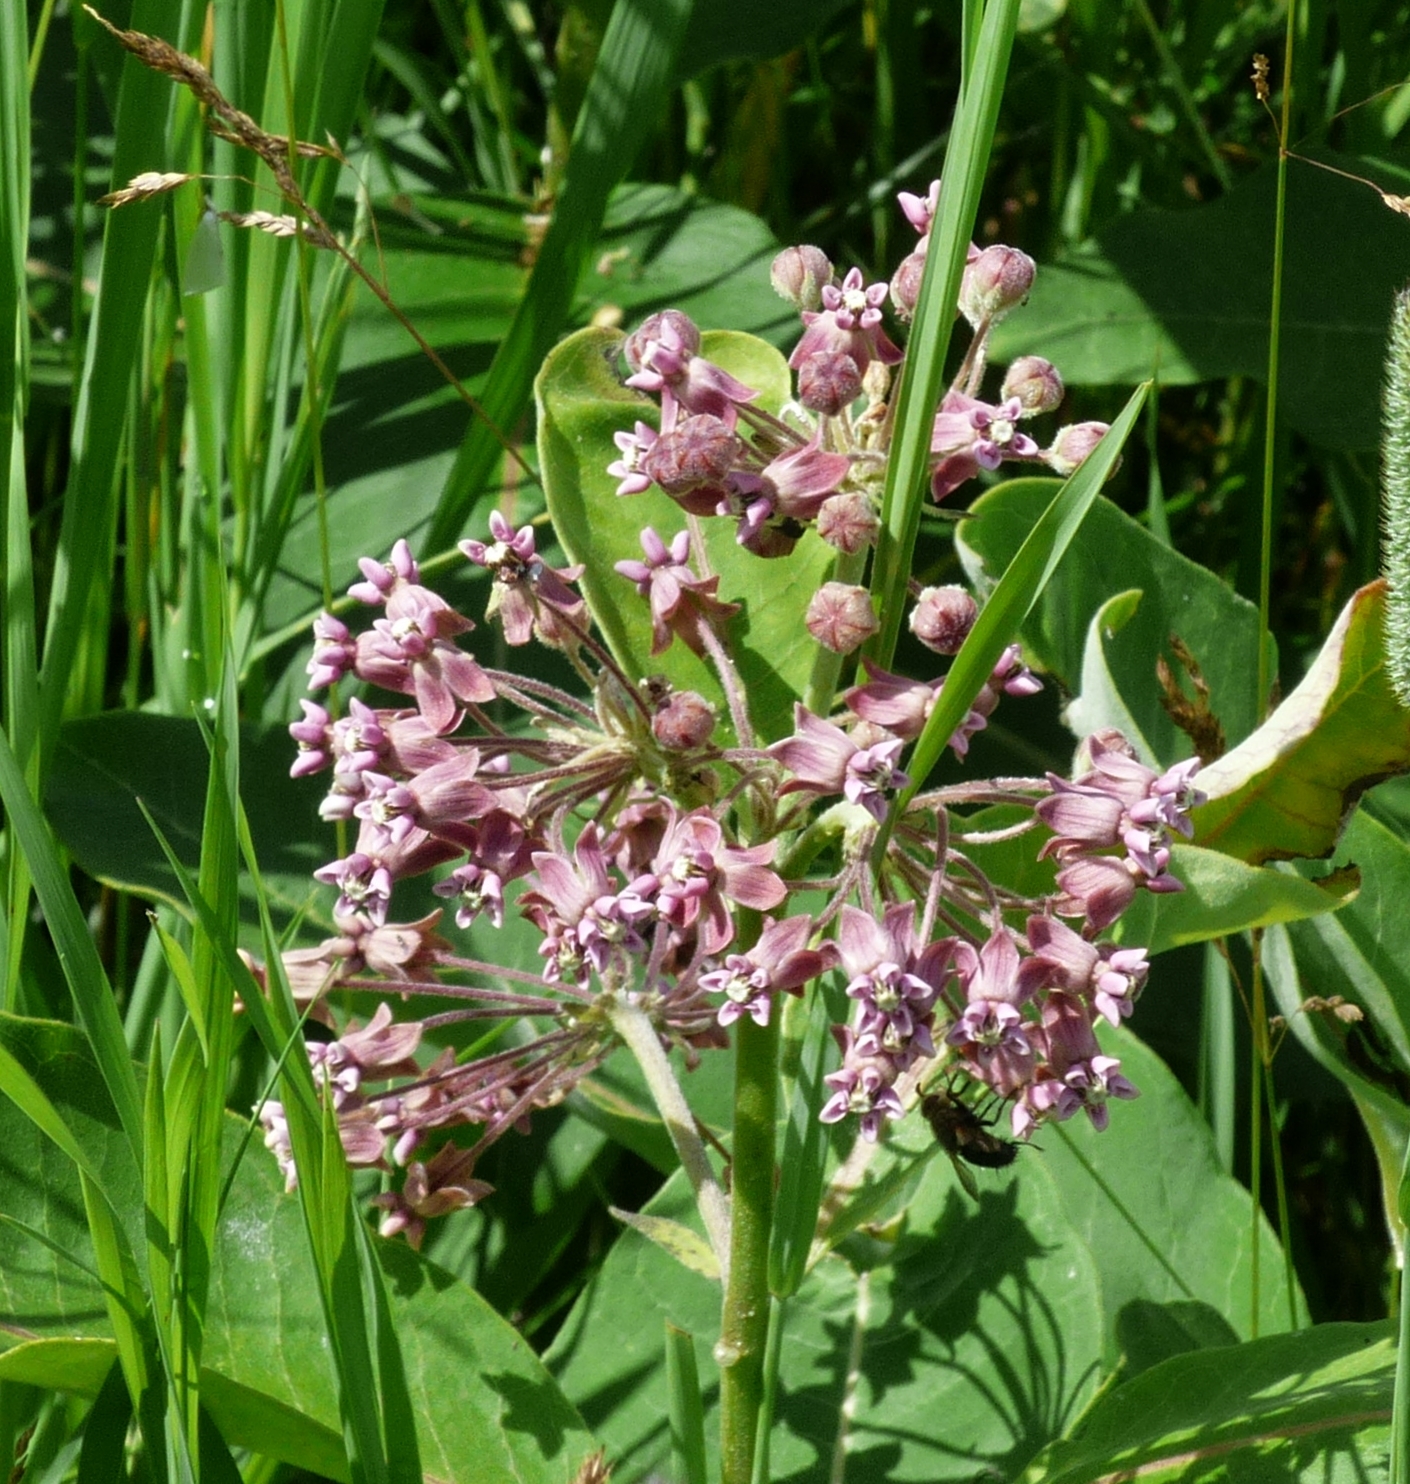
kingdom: Plantae
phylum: Tracheophyta
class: Magnoliopsida
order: Gentianales
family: Apocynaceae
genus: Asclepias
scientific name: Asclepias syriaca
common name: Common milkweed
